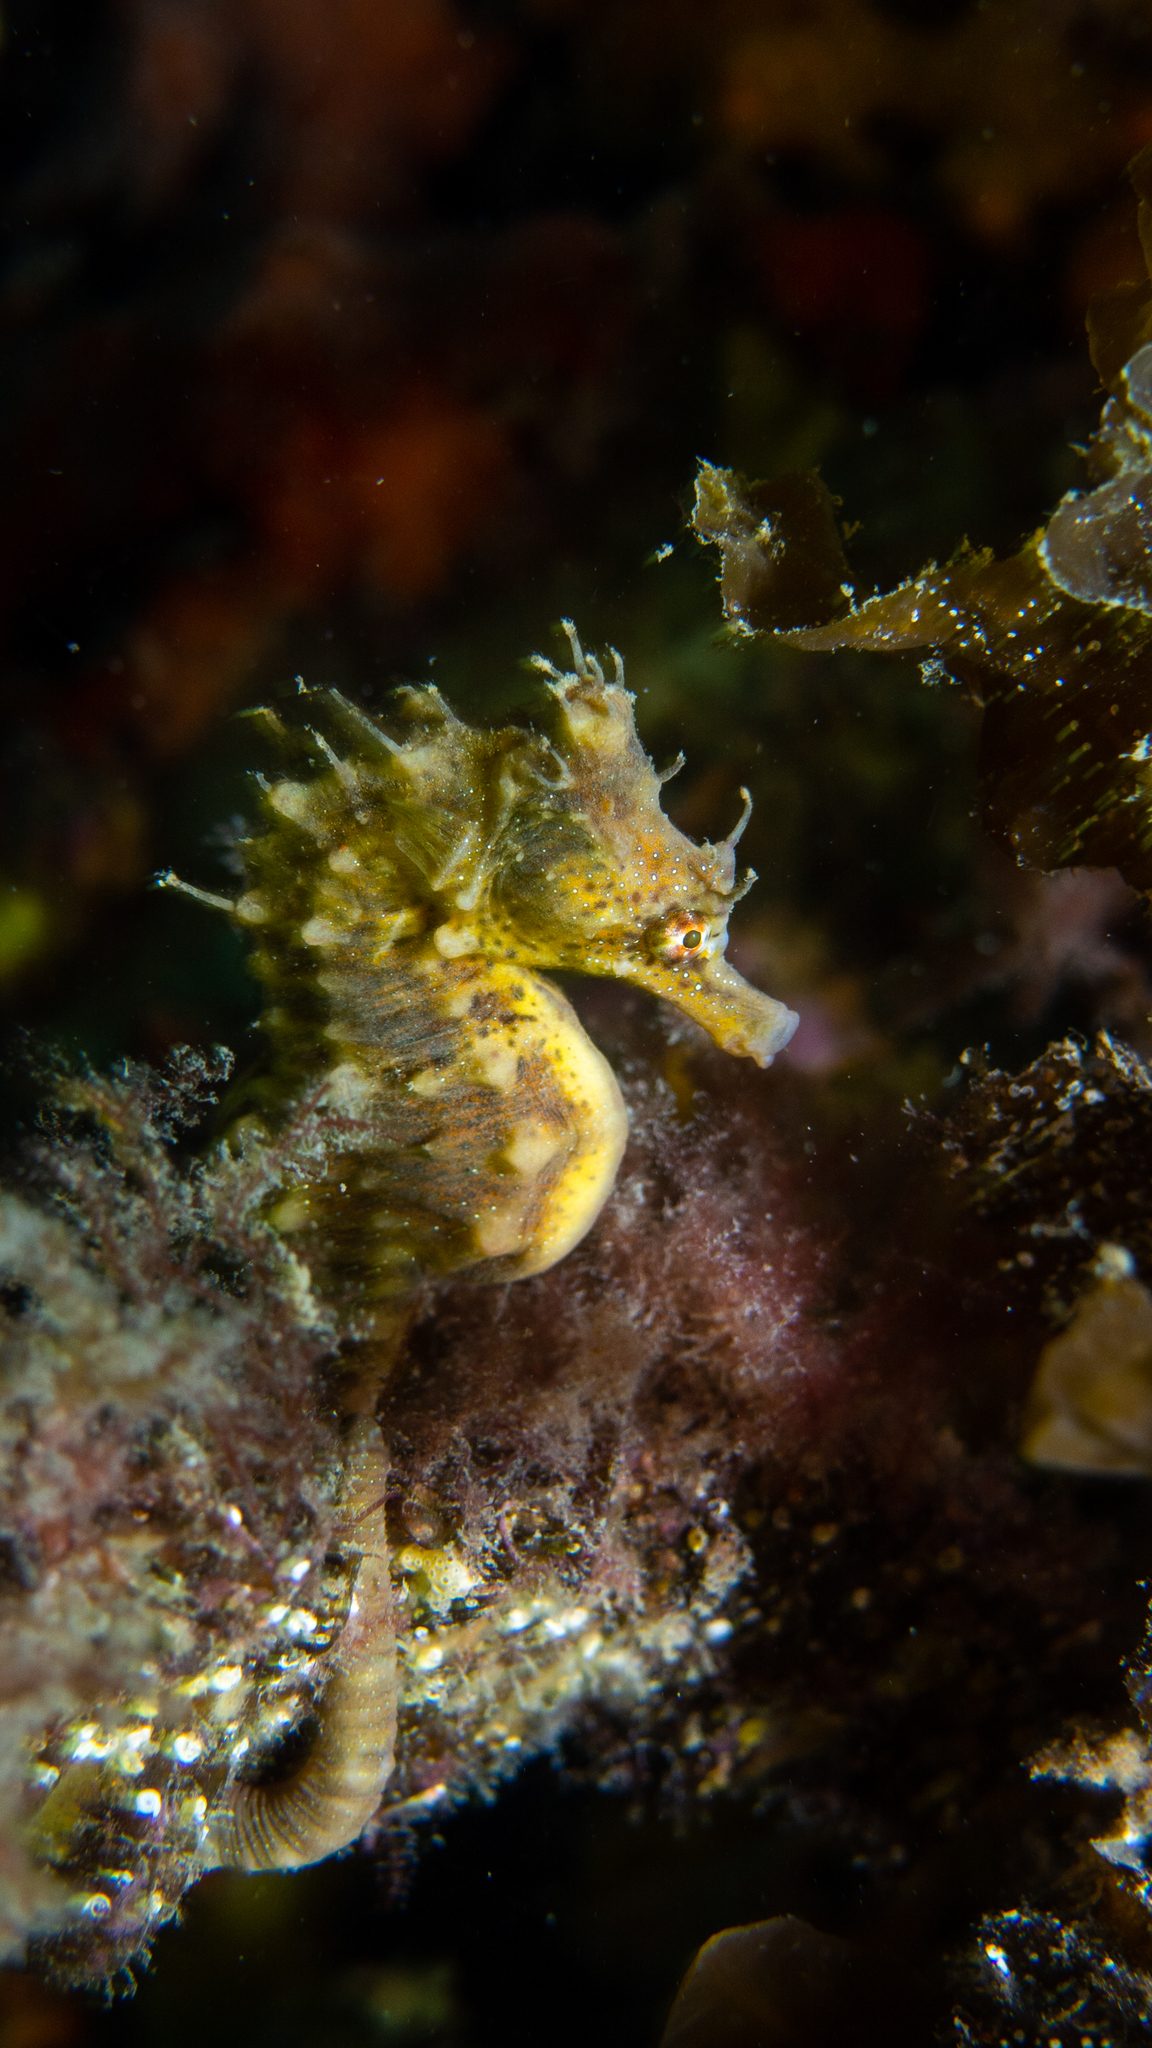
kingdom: Animalia
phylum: Chordata
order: Syngnathiformes
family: Syngnathidae
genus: Hippocampus
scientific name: Hippocampus breviceps
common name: Knobby seahorse
